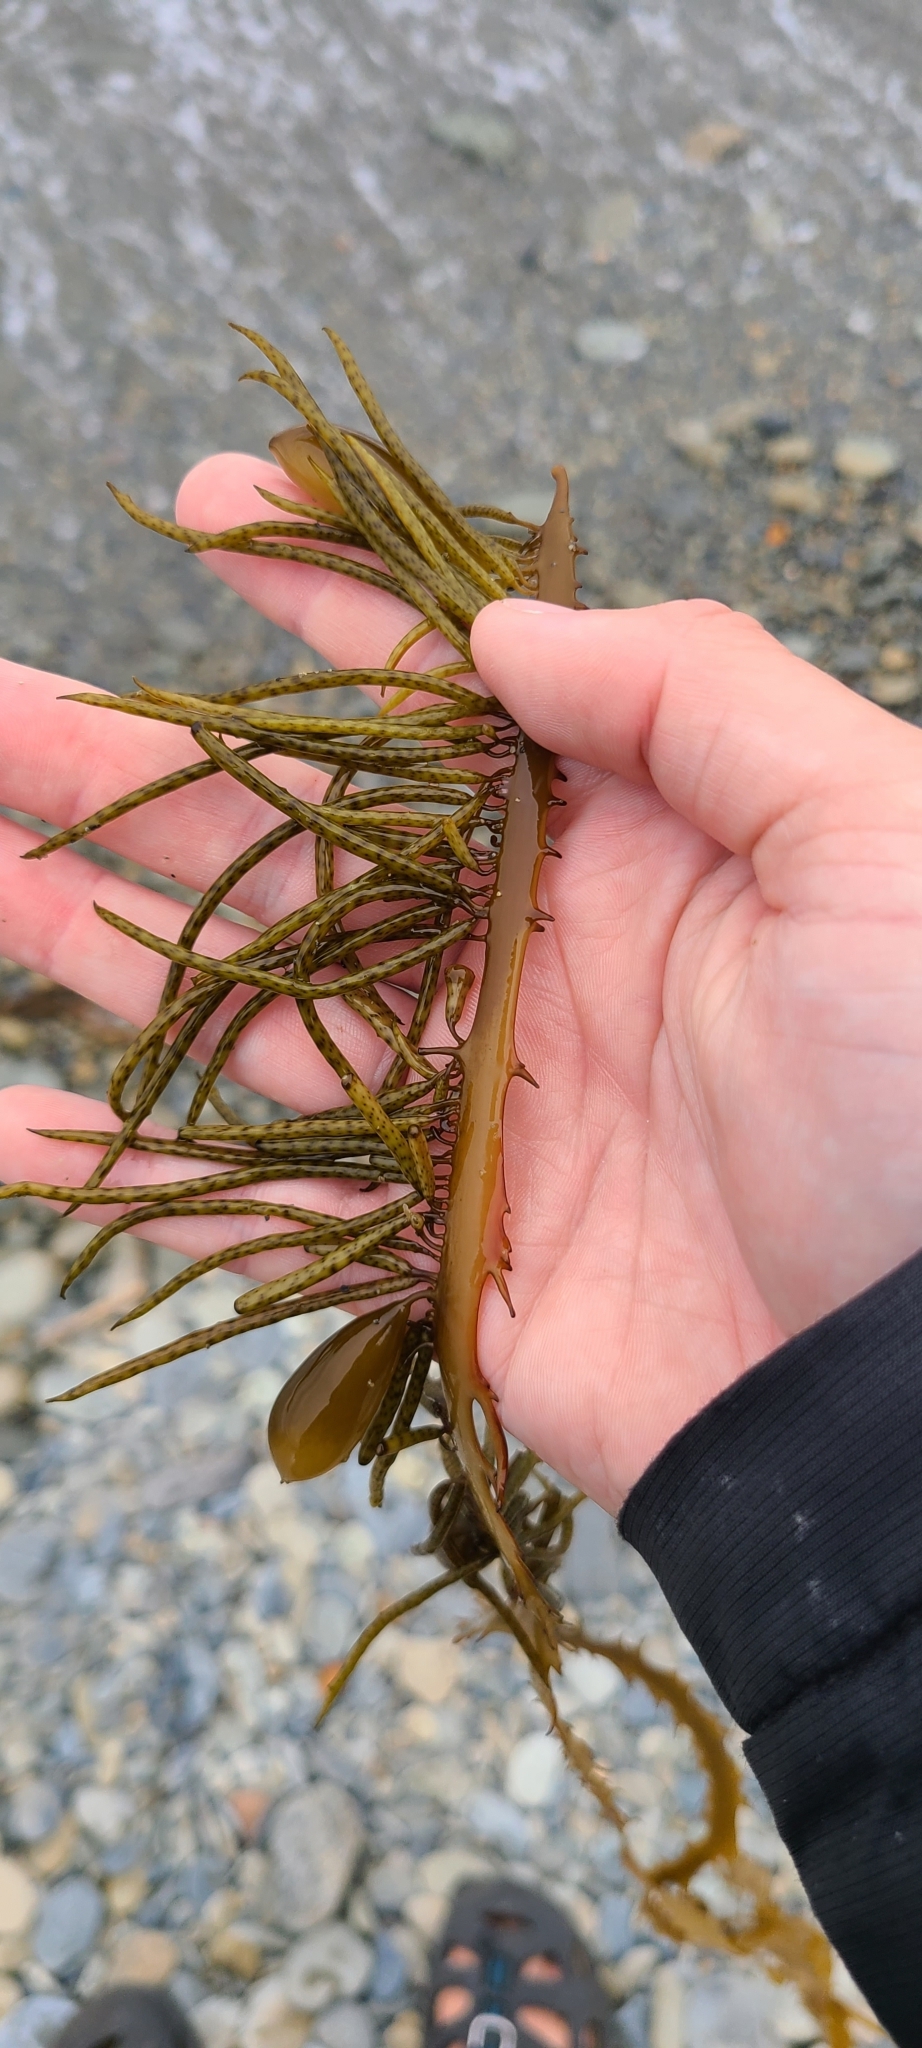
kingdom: Chromista
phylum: Ochrophyta
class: Phaeophyceae
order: Fucales
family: Seirococcaceae
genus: Marginariella
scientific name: Marginariella boryana
